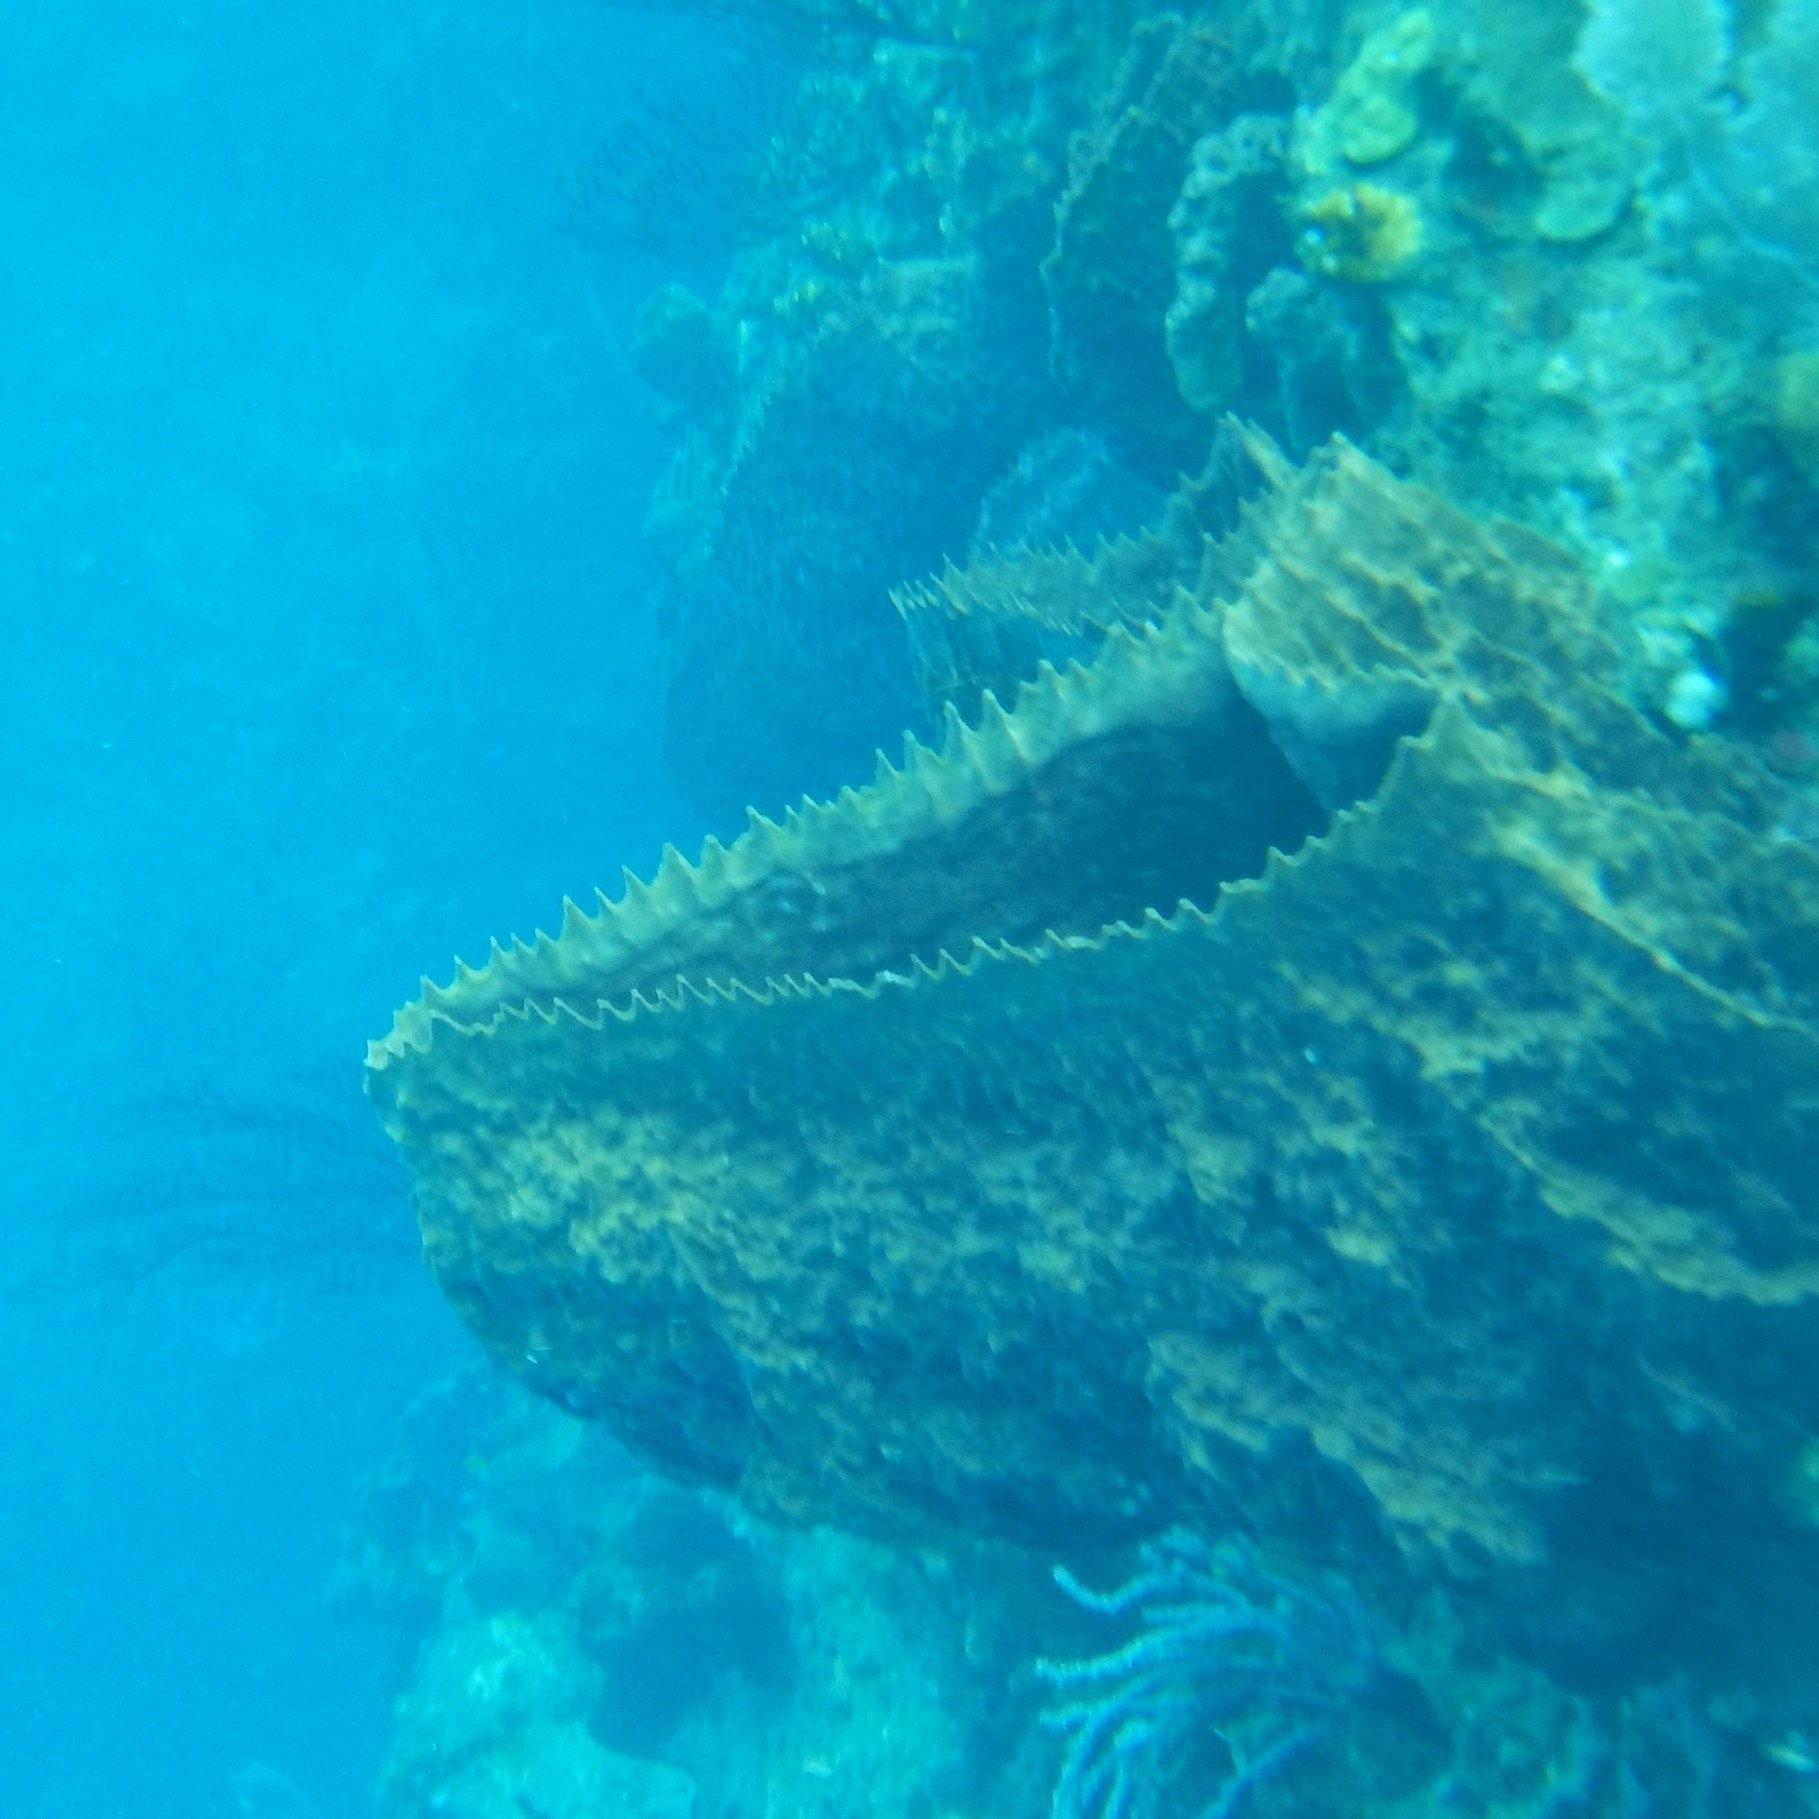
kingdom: Animalia
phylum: Porifera
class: Demospongiae
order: Haplosclerida
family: Petrosiidae
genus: Xestospongia
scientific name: Xestospongia muta
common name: Giant barrel sponge
